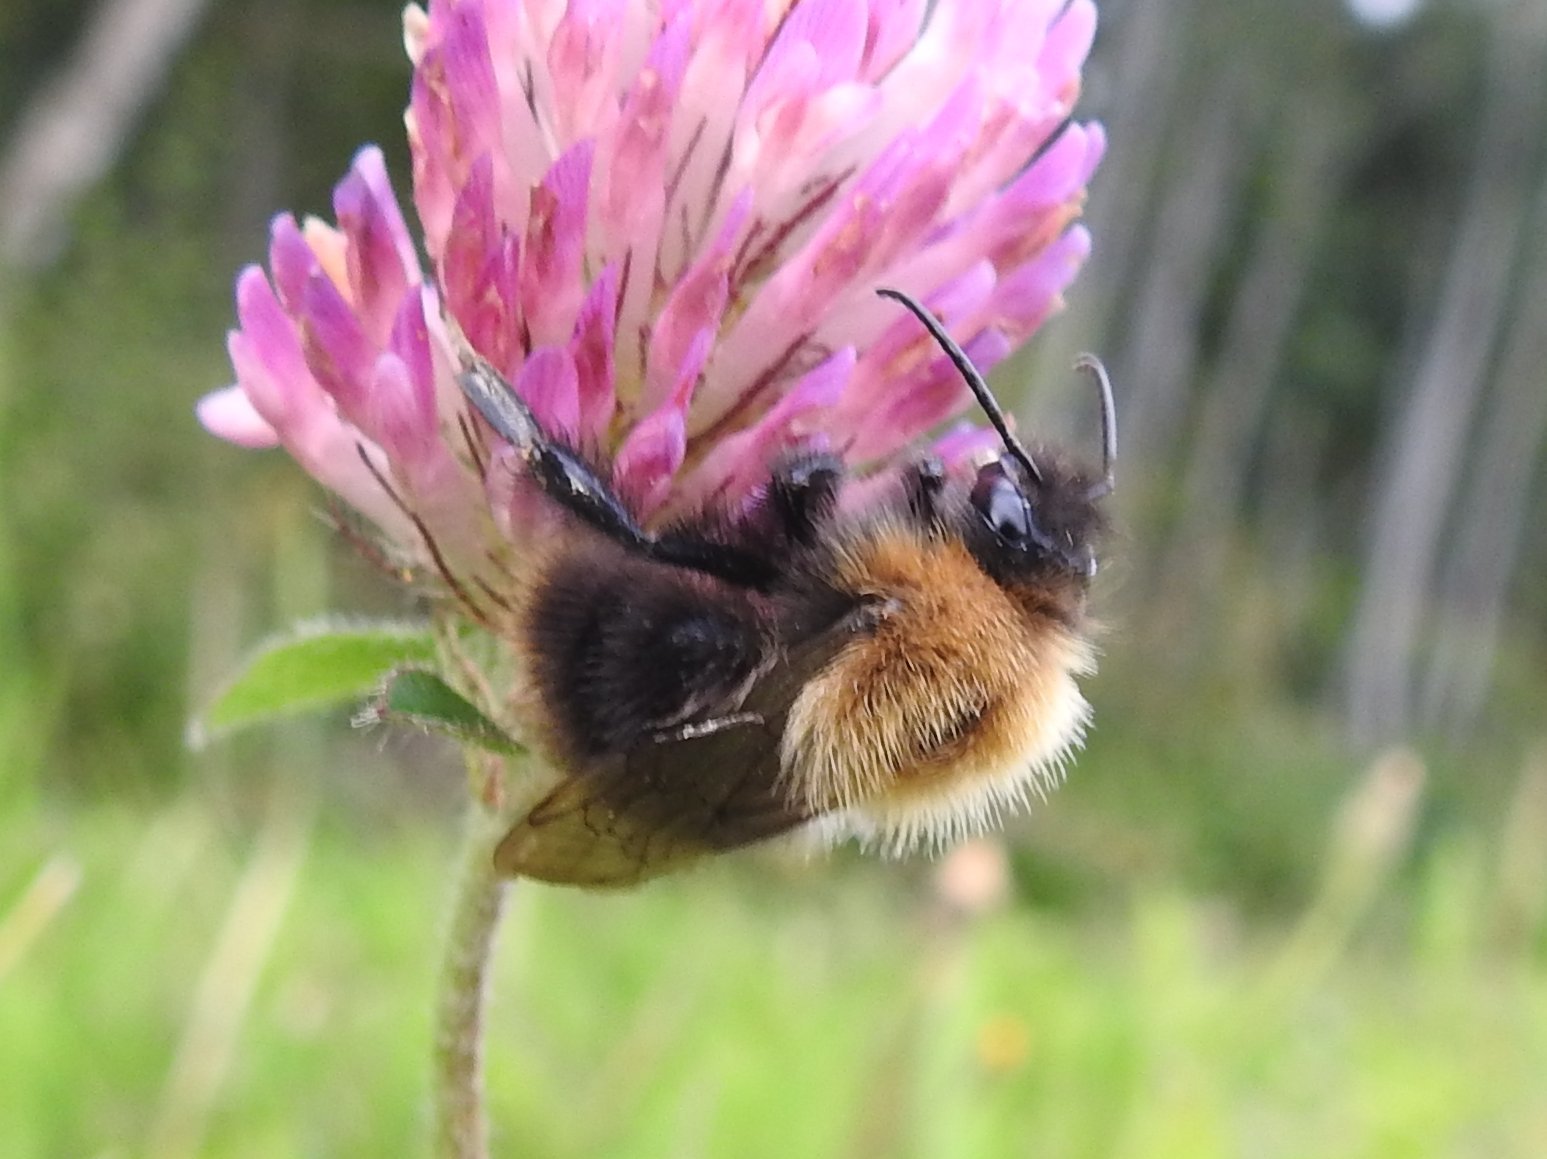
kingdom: Animalia
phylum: Arthropoda
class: Insecta
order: Hymenoptera
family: Apidae
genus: Bombus
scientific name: Bombus pascuorum
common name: Common carder bee
